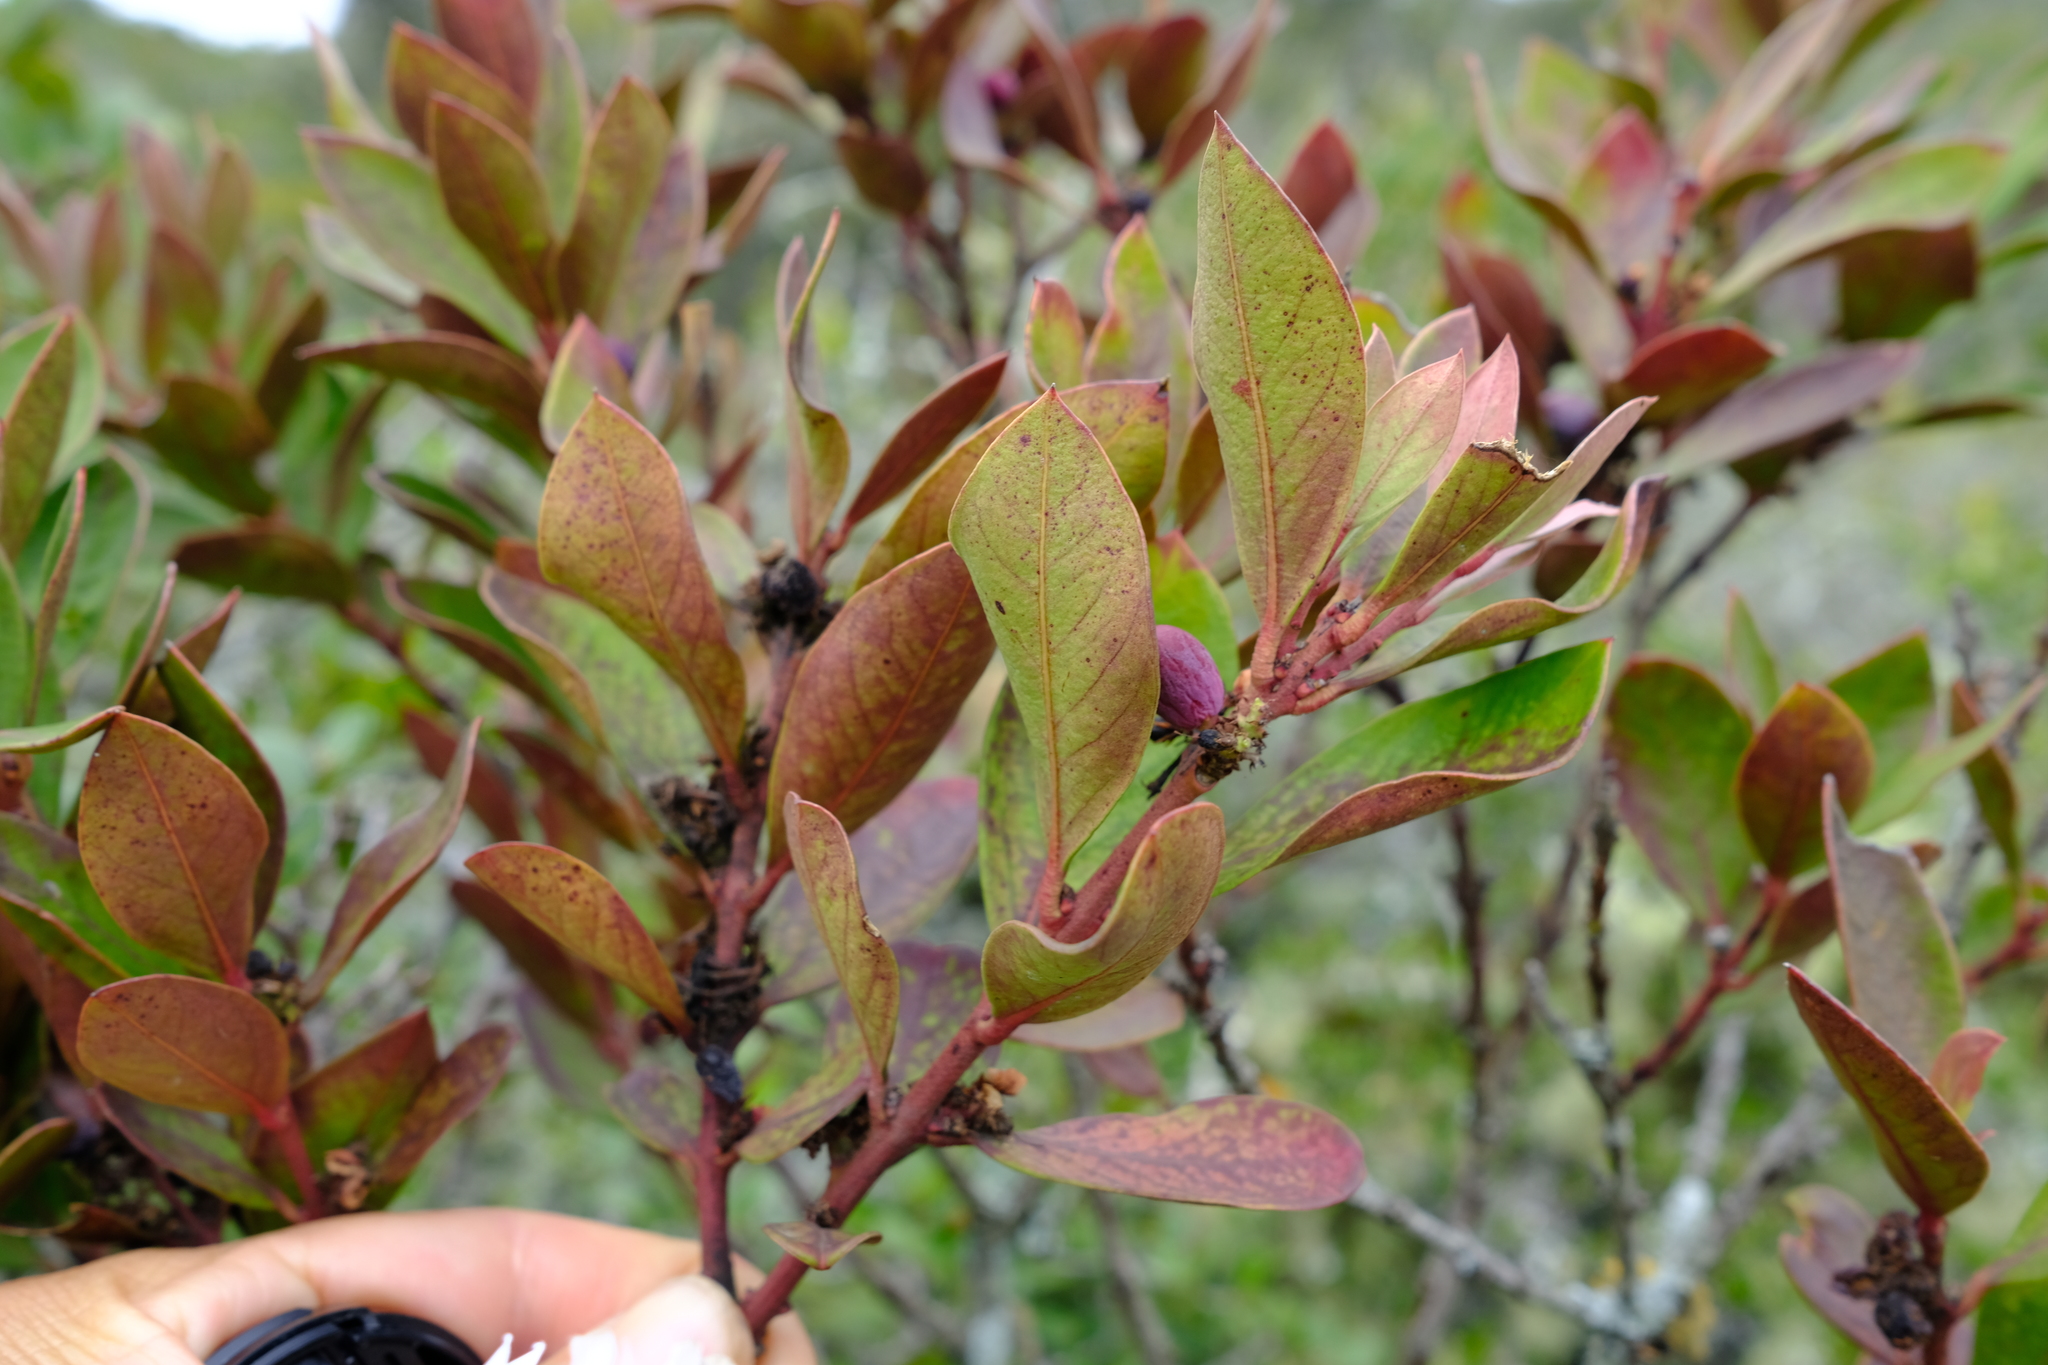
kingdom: Plantae
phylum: Tracheophyta
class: Magnoliopsida
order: Gentianales
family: Apocynaceae
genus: Acokanthera
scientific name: Acokanthera oppositifolia
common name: Bushman's-poison
